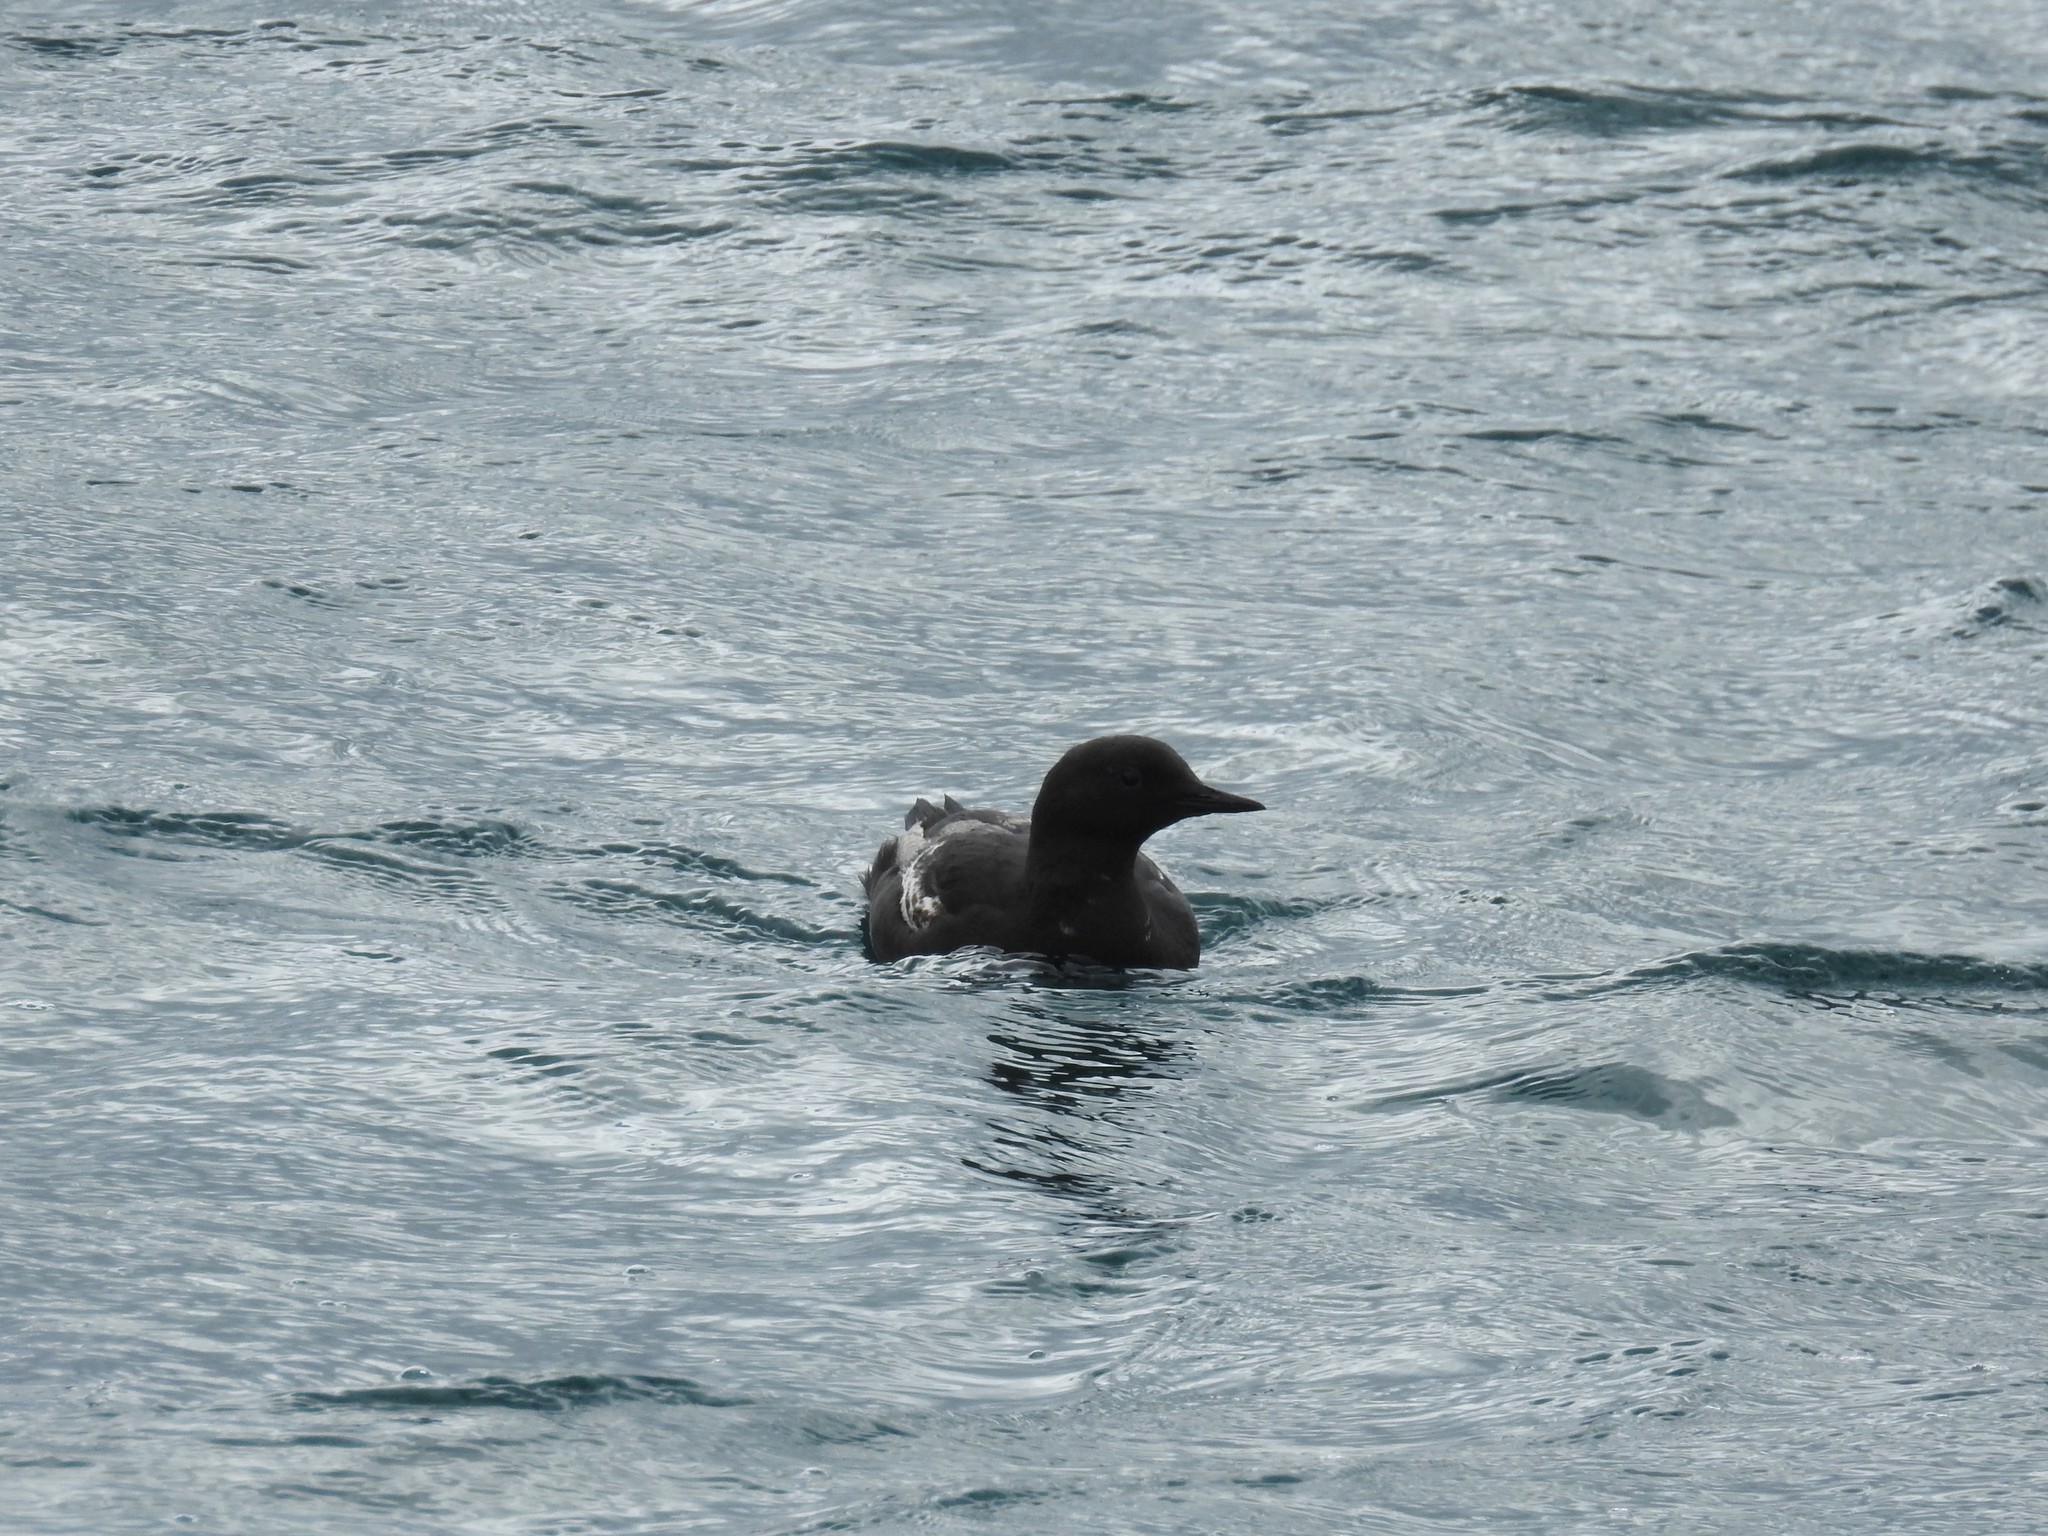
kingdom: Animalia
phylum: Chordata
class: Aves
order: Charadriiformes
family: Alcidae
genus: Cepphus
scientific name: Cepphus grylle
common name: Black guillemot
